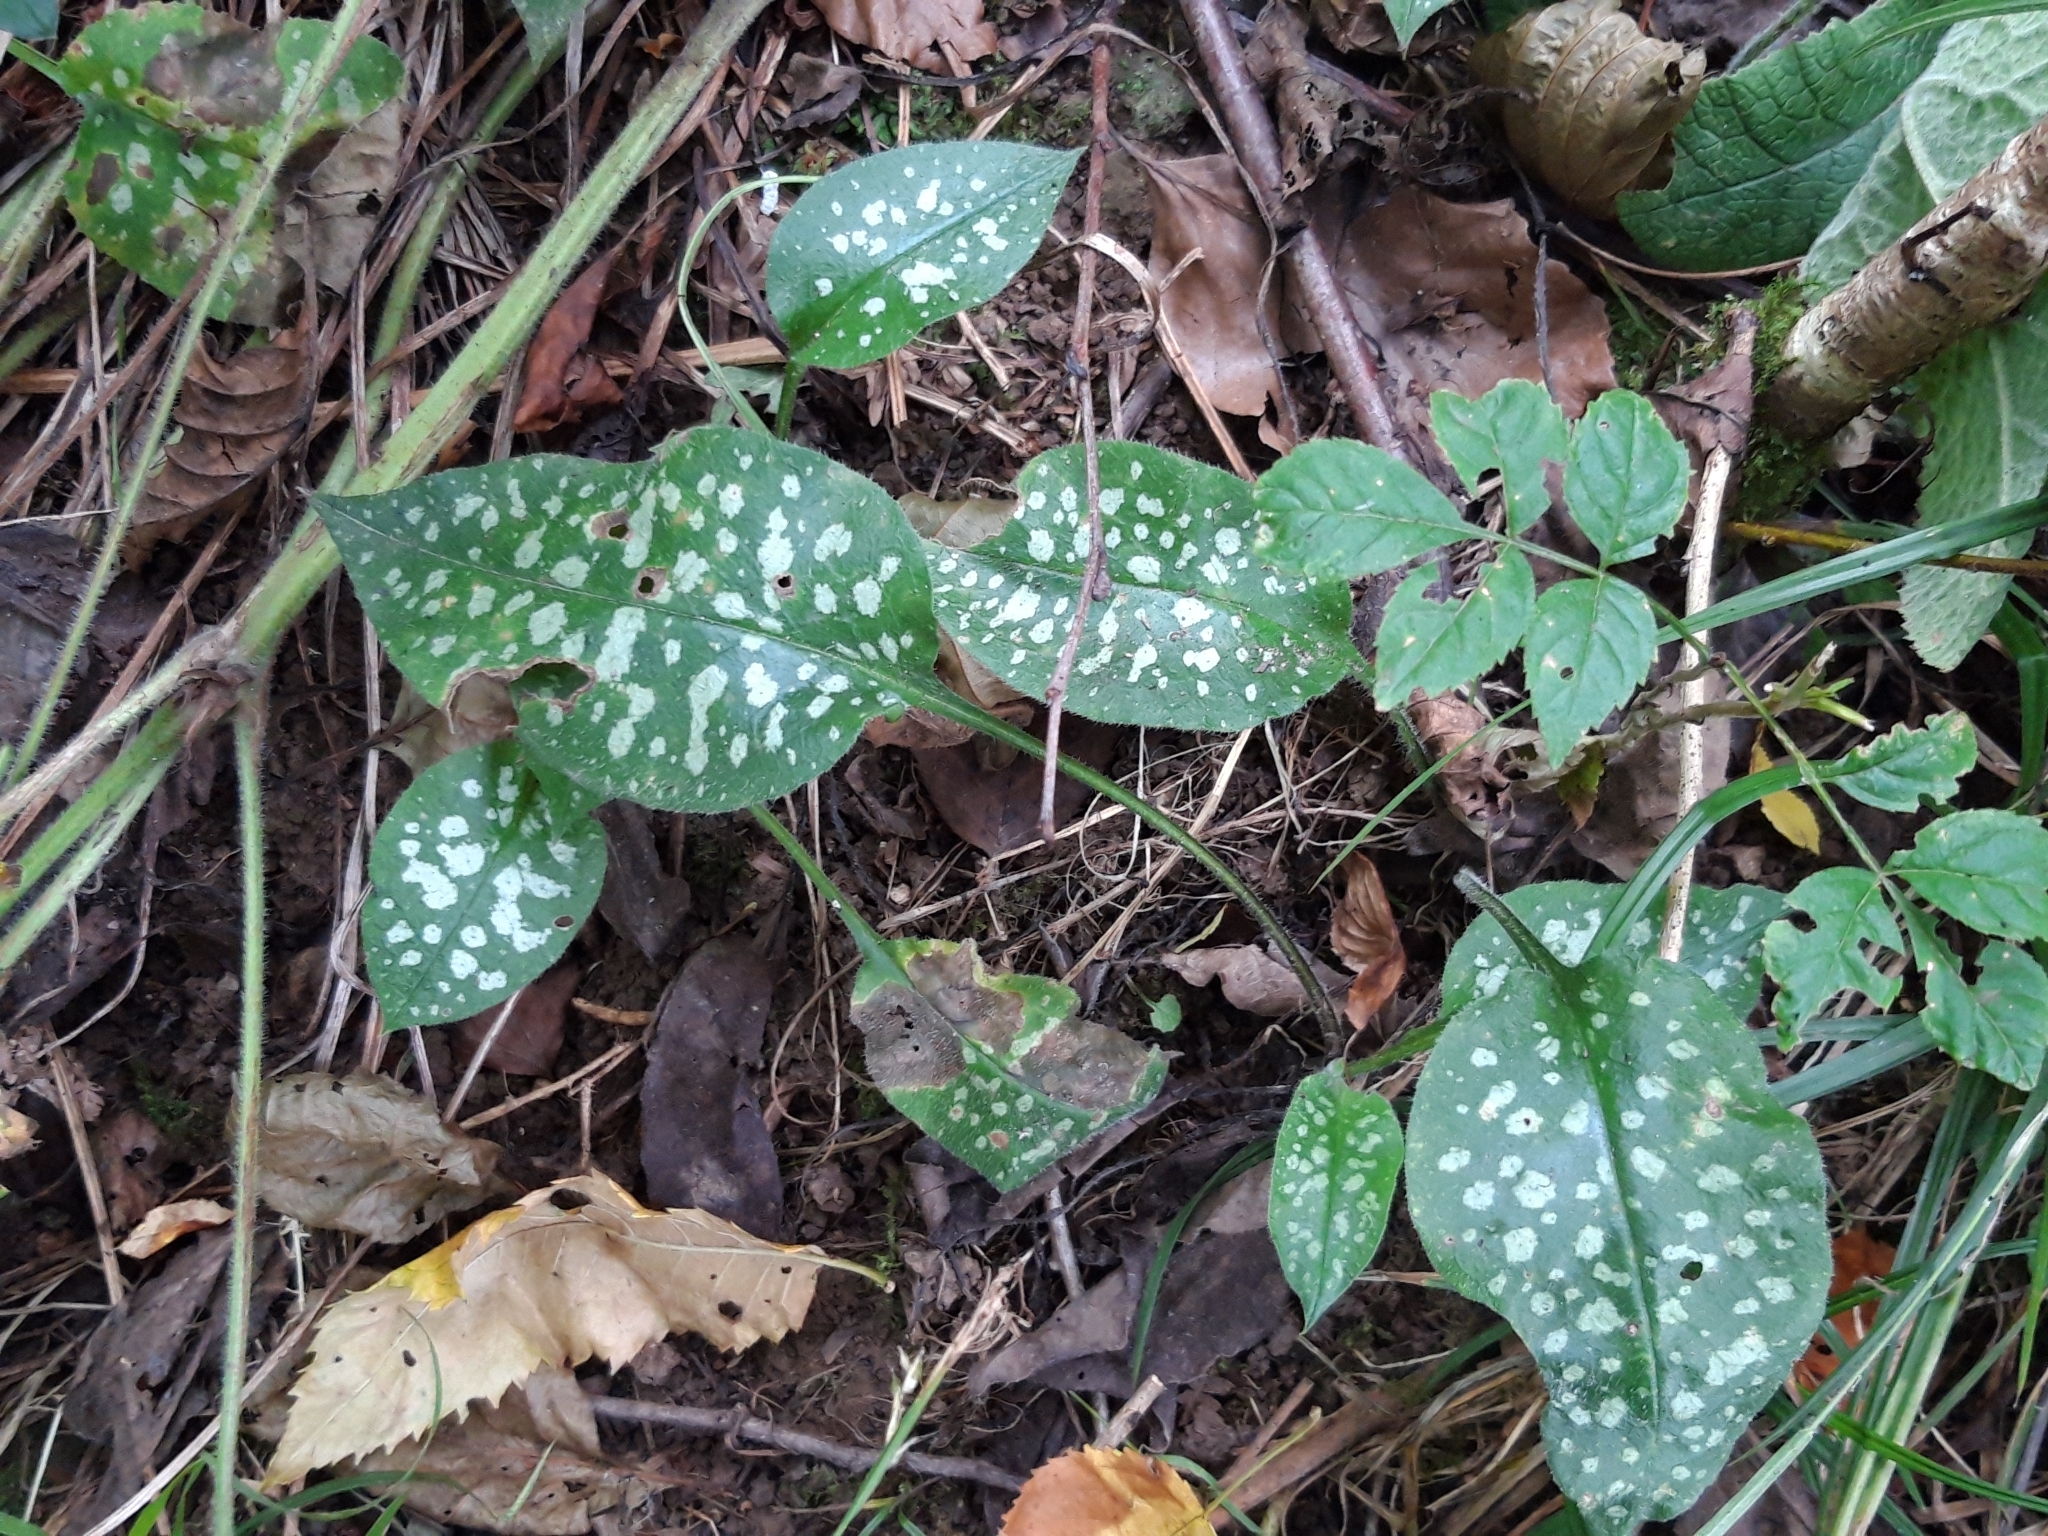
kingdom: Plantae
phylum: Tracheophyta
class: Magnoliopsida
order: Boraginales
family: Boraginaceae
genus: Pulmonaria
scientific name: Pulmonaria officinalis
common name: Lungwort
